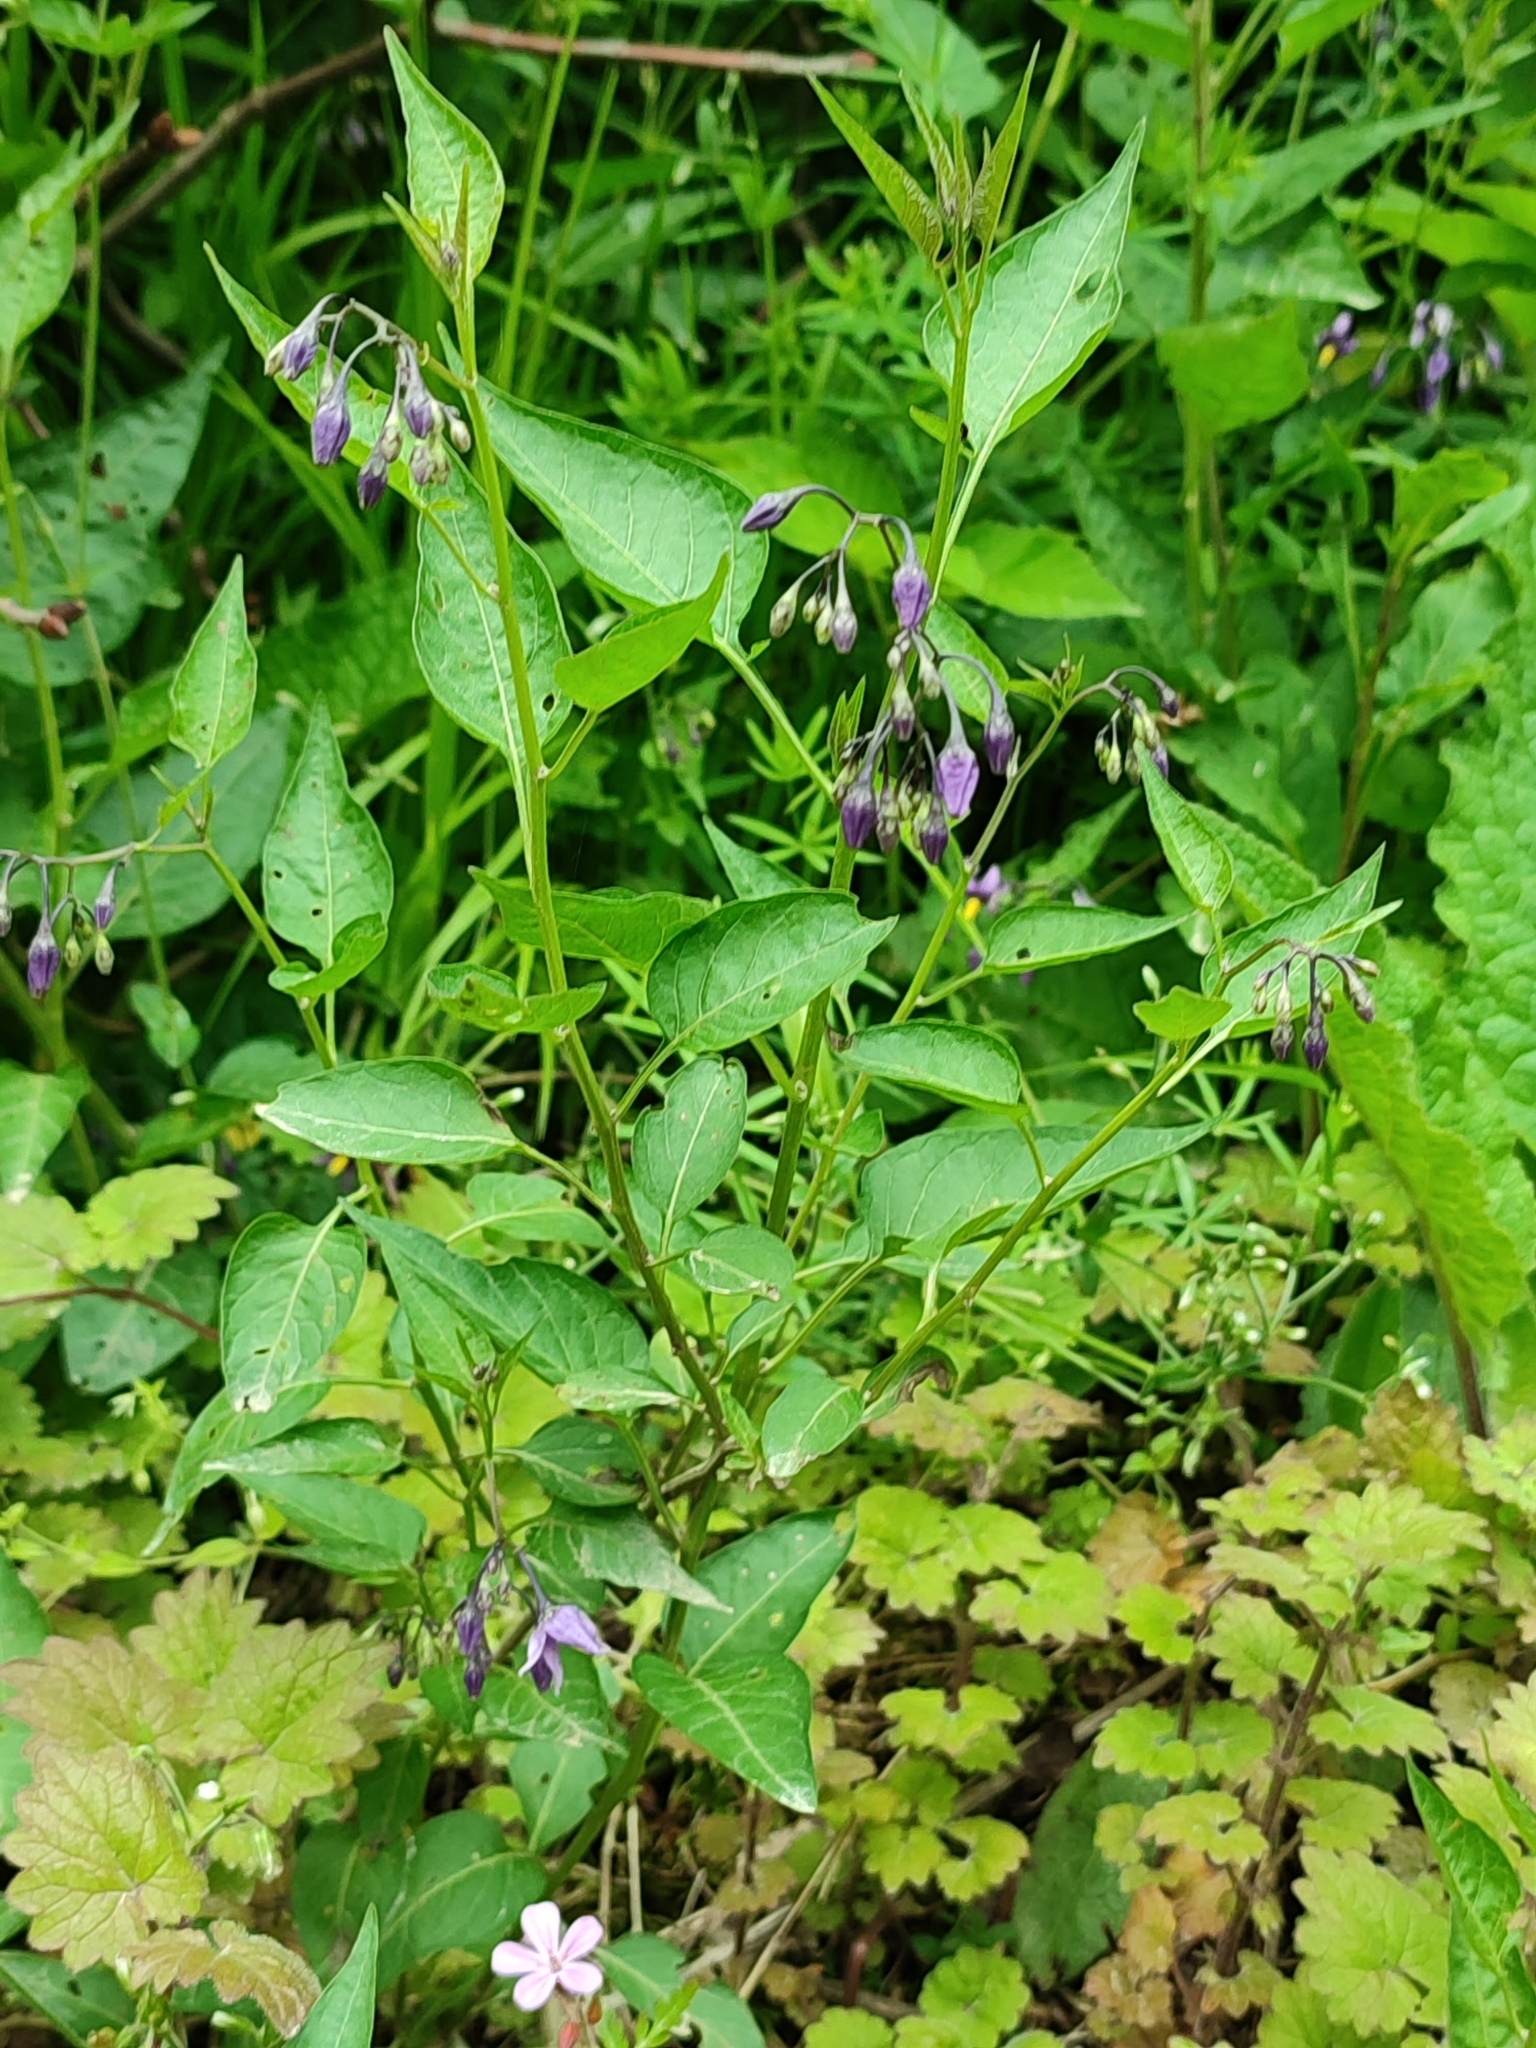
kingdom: Plantae
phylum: Tracheophyta
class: Magnoliopsida
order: Solanales
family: Solanaceae
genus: Solanum
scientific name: Solanum dulcamara
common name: Climbing nightshade
